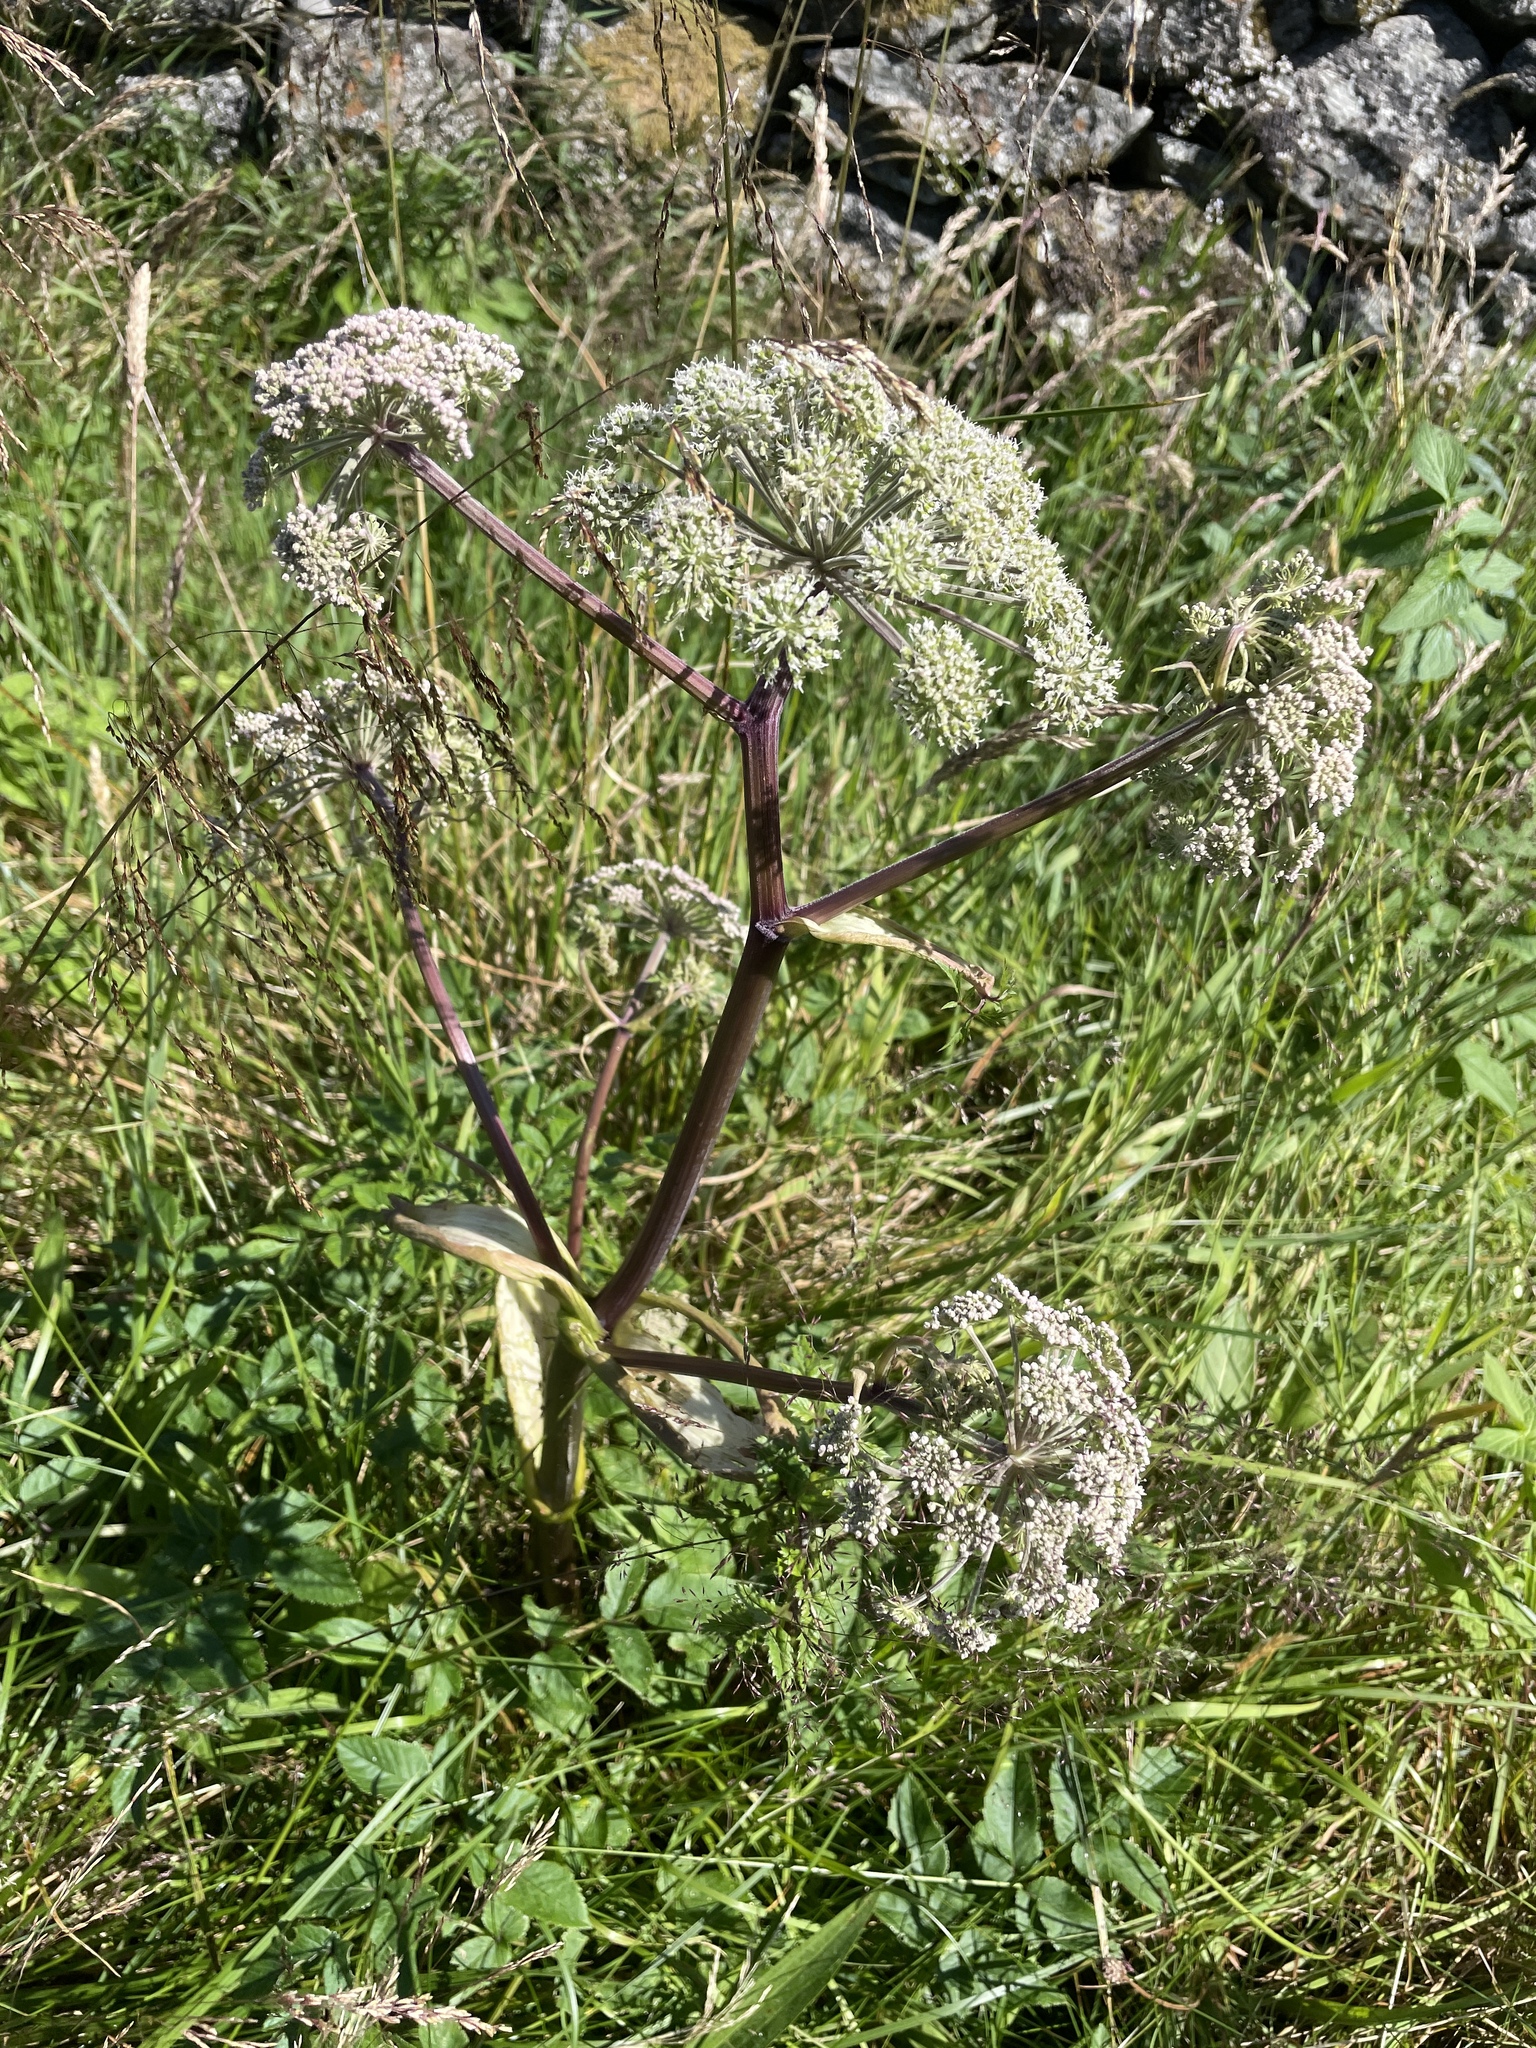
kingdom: Plantae
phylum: Tracheophyta
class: Magnoliopsida
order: Apiales
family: Apiaceae
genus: Angelica
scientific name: Angelica sylvestris
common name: Wild angelica
